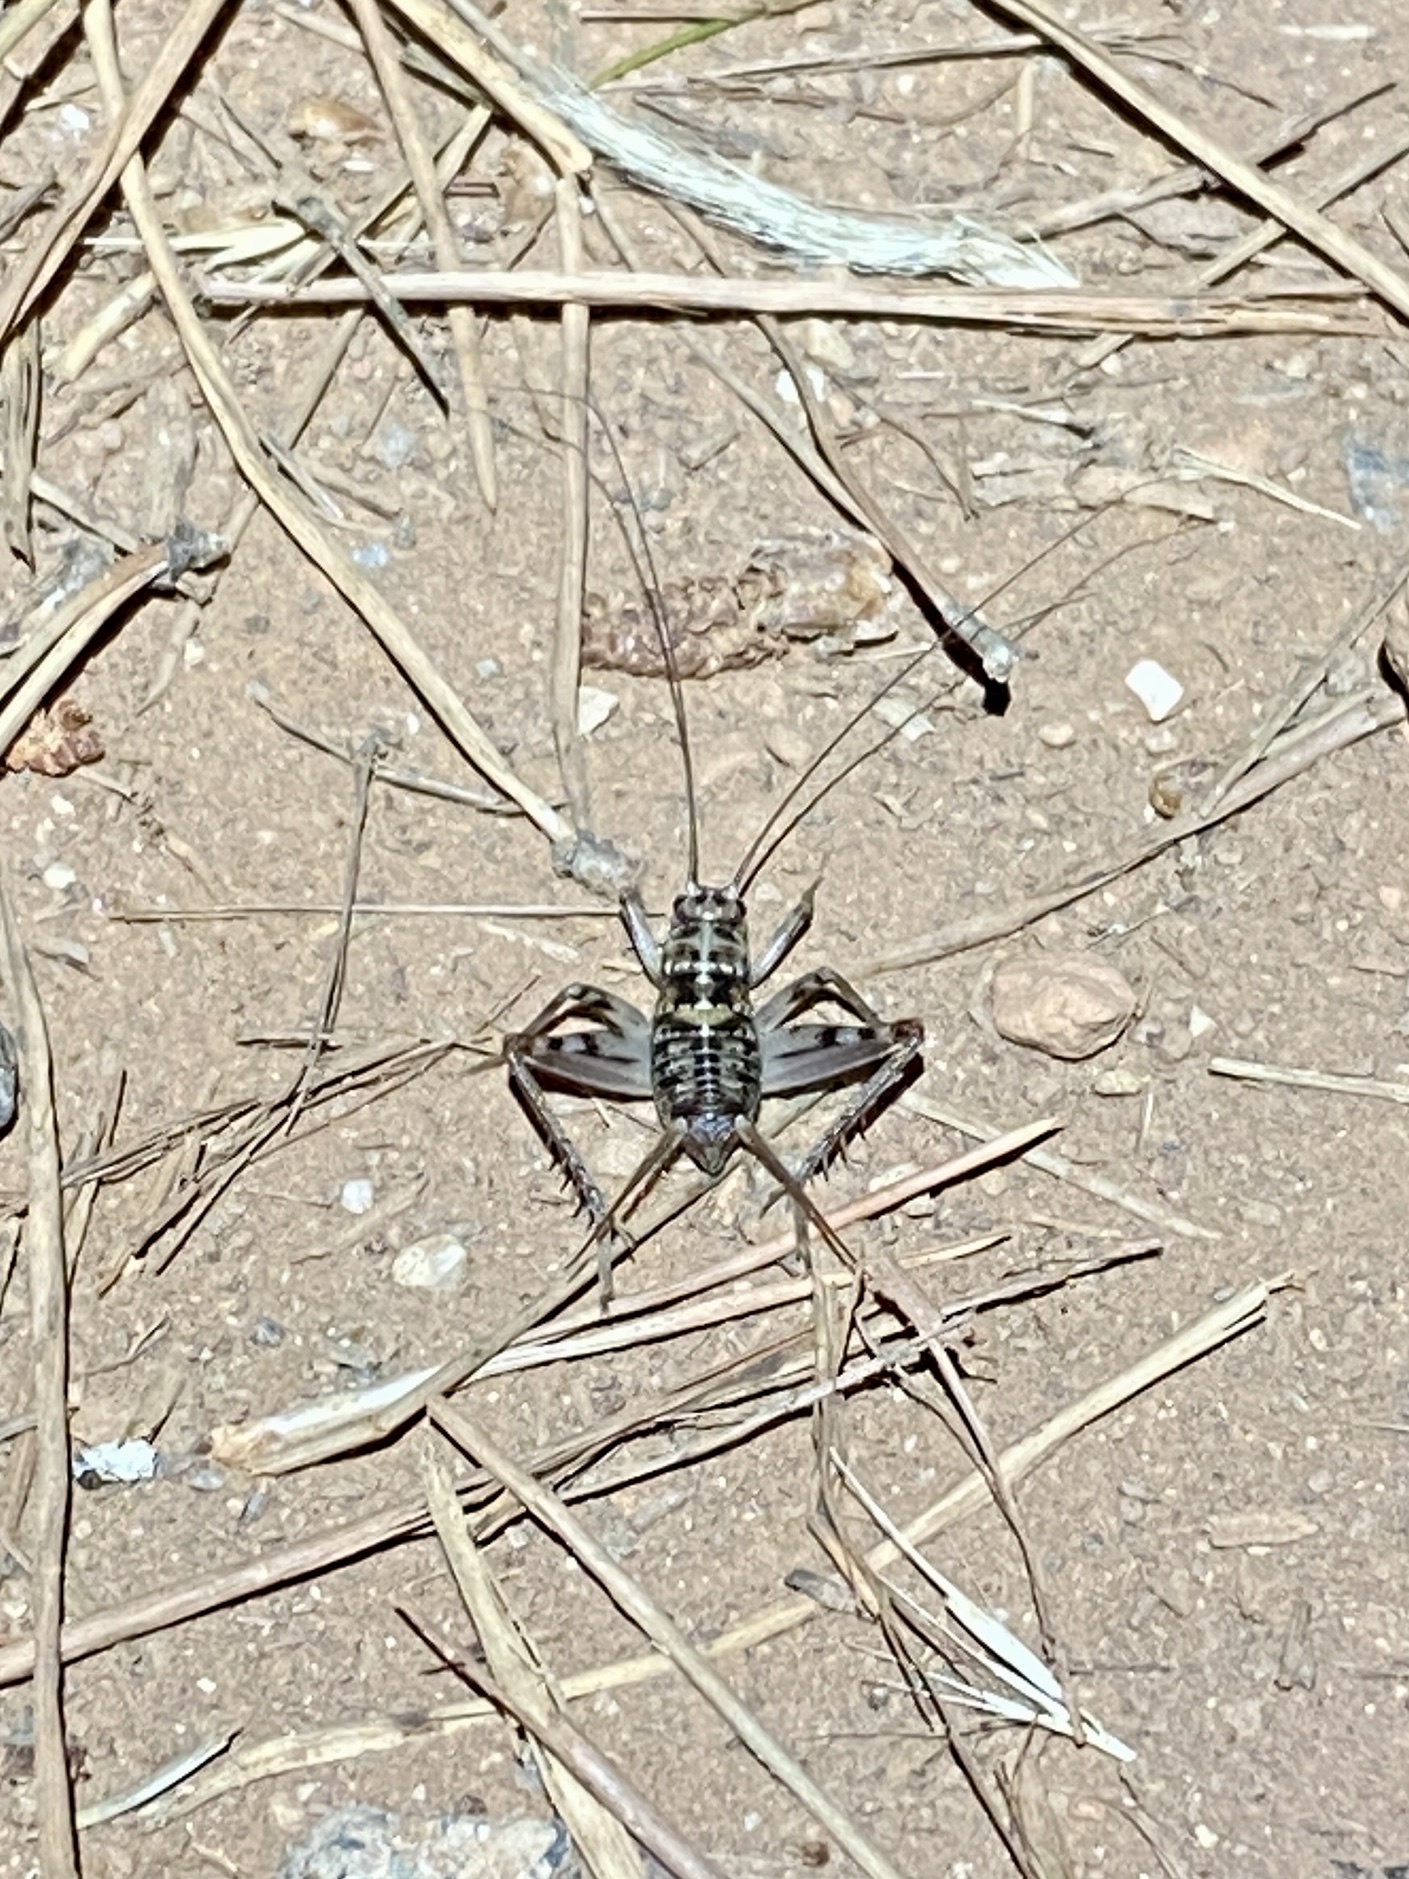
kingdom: Animalia
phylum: Arthropoda
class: Insecta
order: Orthoptera
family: Gryllidae
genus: Gryllomorpha
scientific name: Gryllomorpha dalmatina
